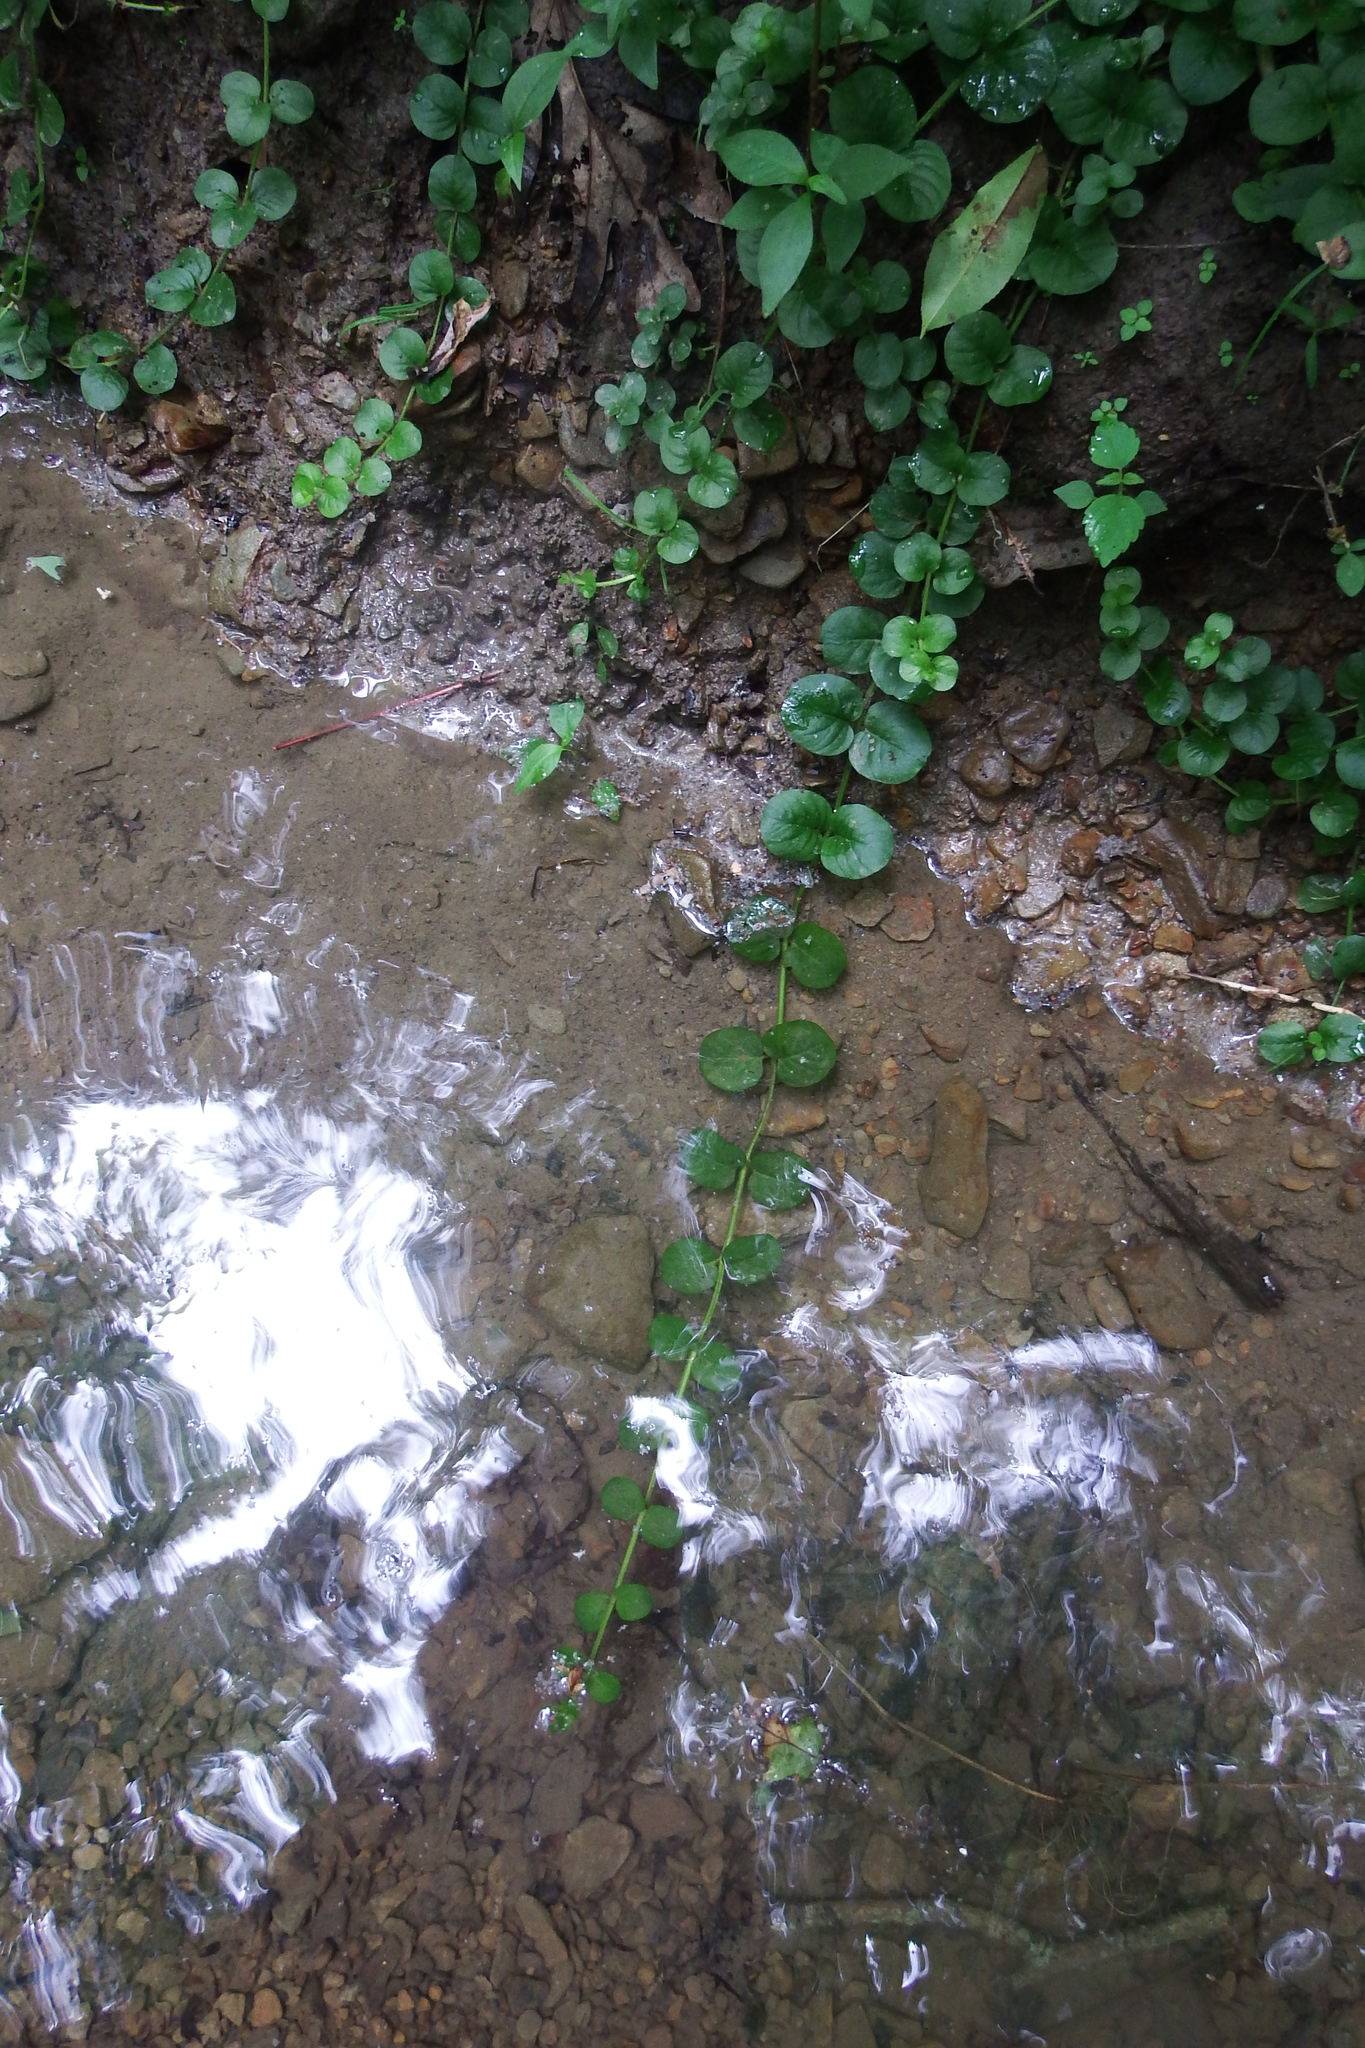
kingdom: Plantae
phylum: Tracheophyta
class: Magnoliopsida
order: Ericales
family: Primulaceae
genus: Lysimachia
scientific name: Lysimachia nummularia
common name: Moneywort
